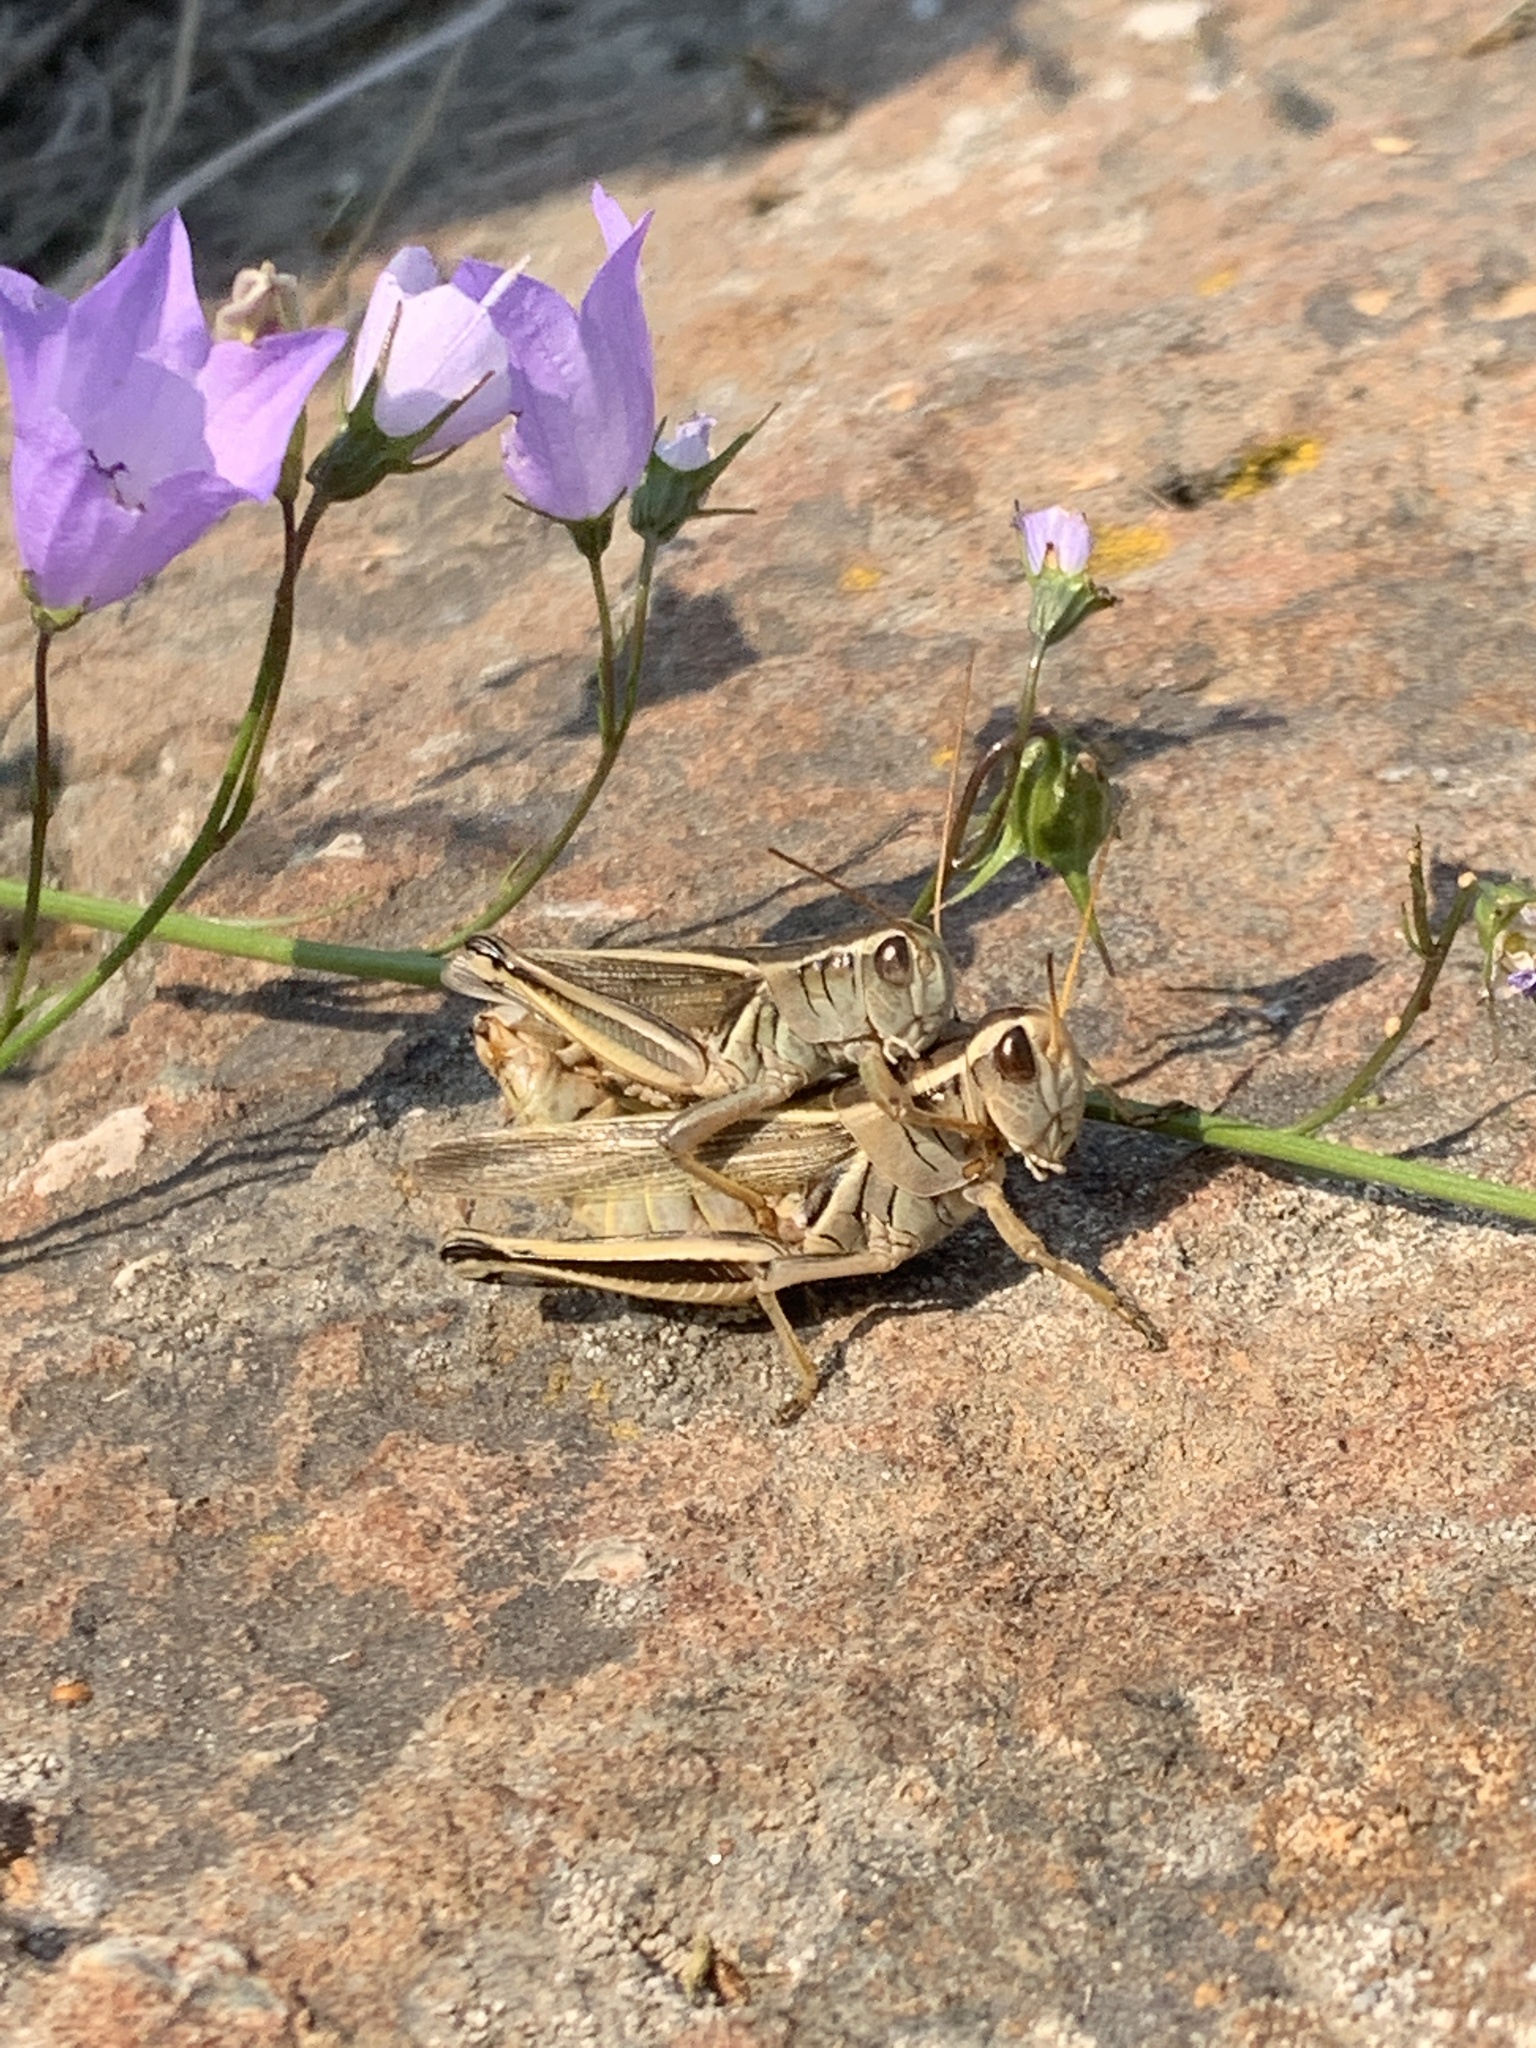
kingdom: Animalia
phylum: Arthropoda
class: Insecta
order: Orthoptera
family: Acrididae
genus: Melanoplus
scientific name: Melanoplus bivittatus
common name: Two-striped grasshopper
